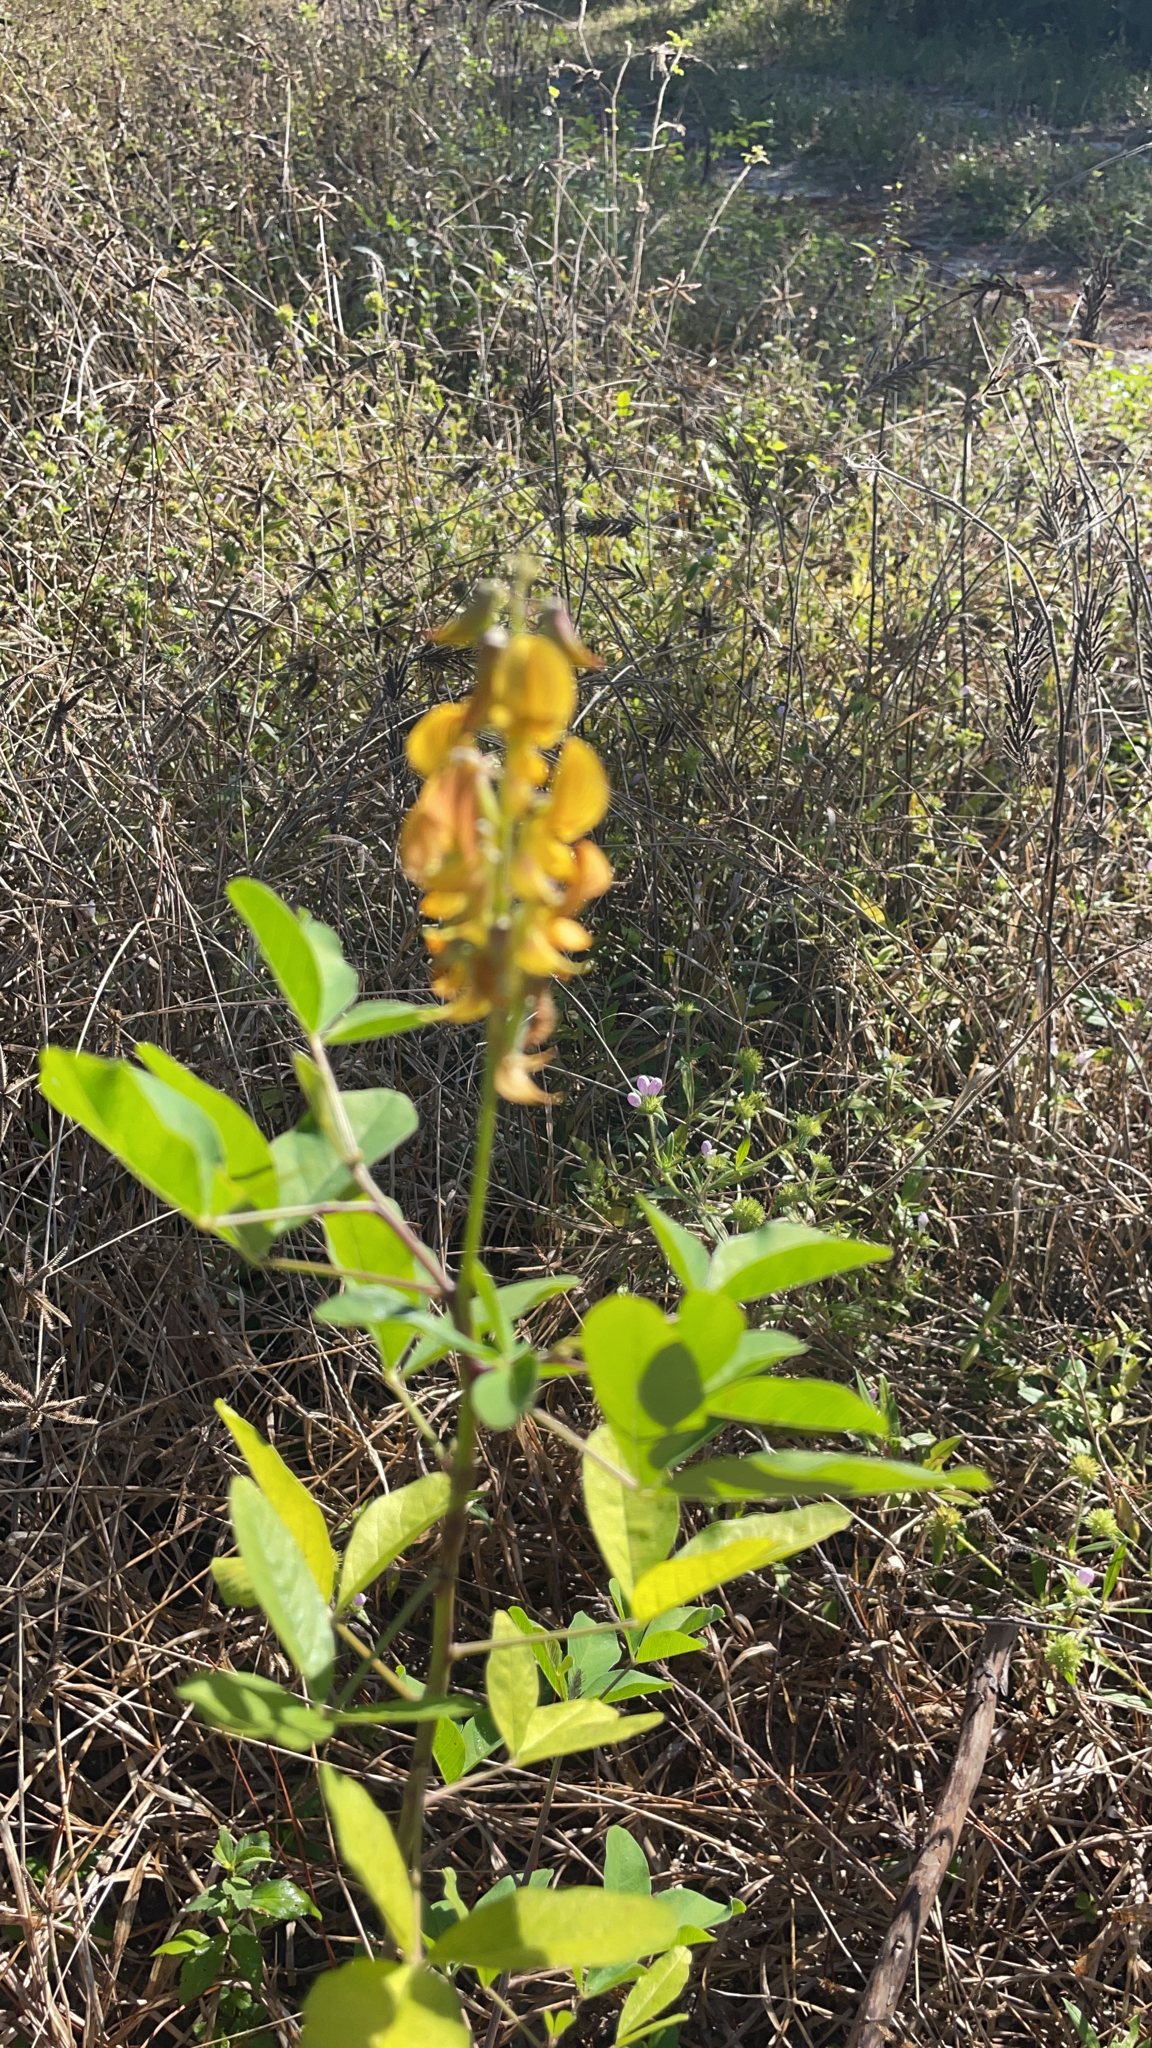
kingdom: Plantae
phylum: Tracheophyta
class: Magnoliopsida
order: Fabales
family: Fabaceae
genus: Crotalaria
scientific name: Crotalaria pallida
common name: Smooth rattlebox
